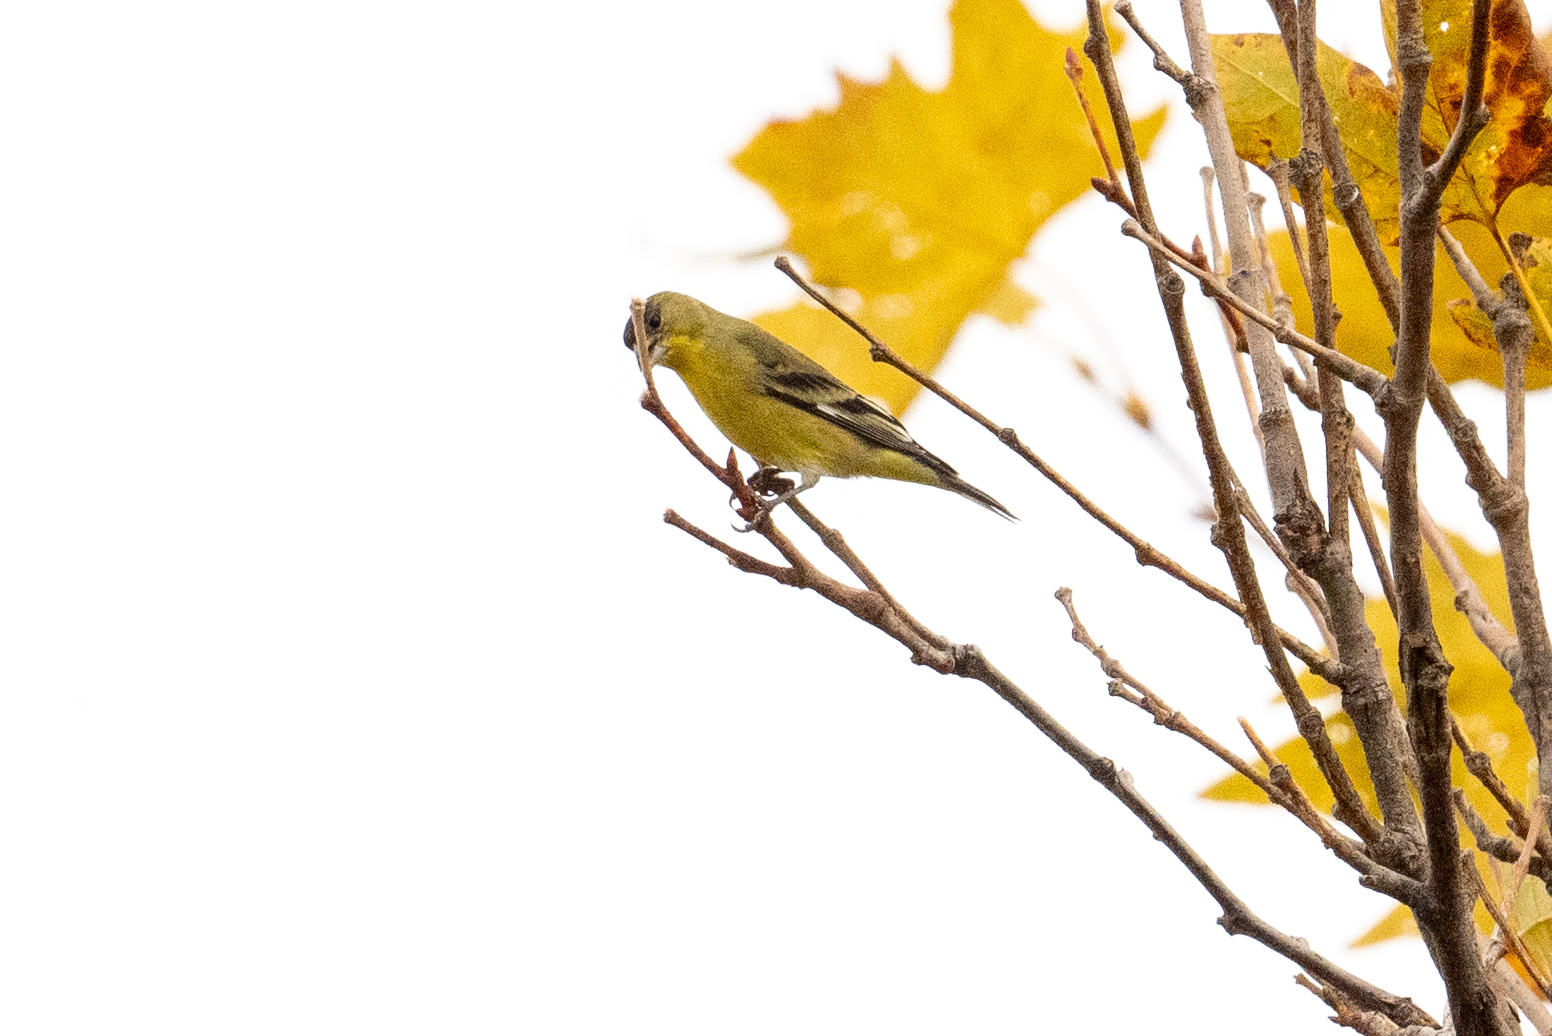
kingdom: Animalia
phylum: Chordata
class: Aves
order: Passeriformes
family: Fringillidae
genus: Spinus
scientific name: Spinus psaltria
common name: Lesser goldfinch
